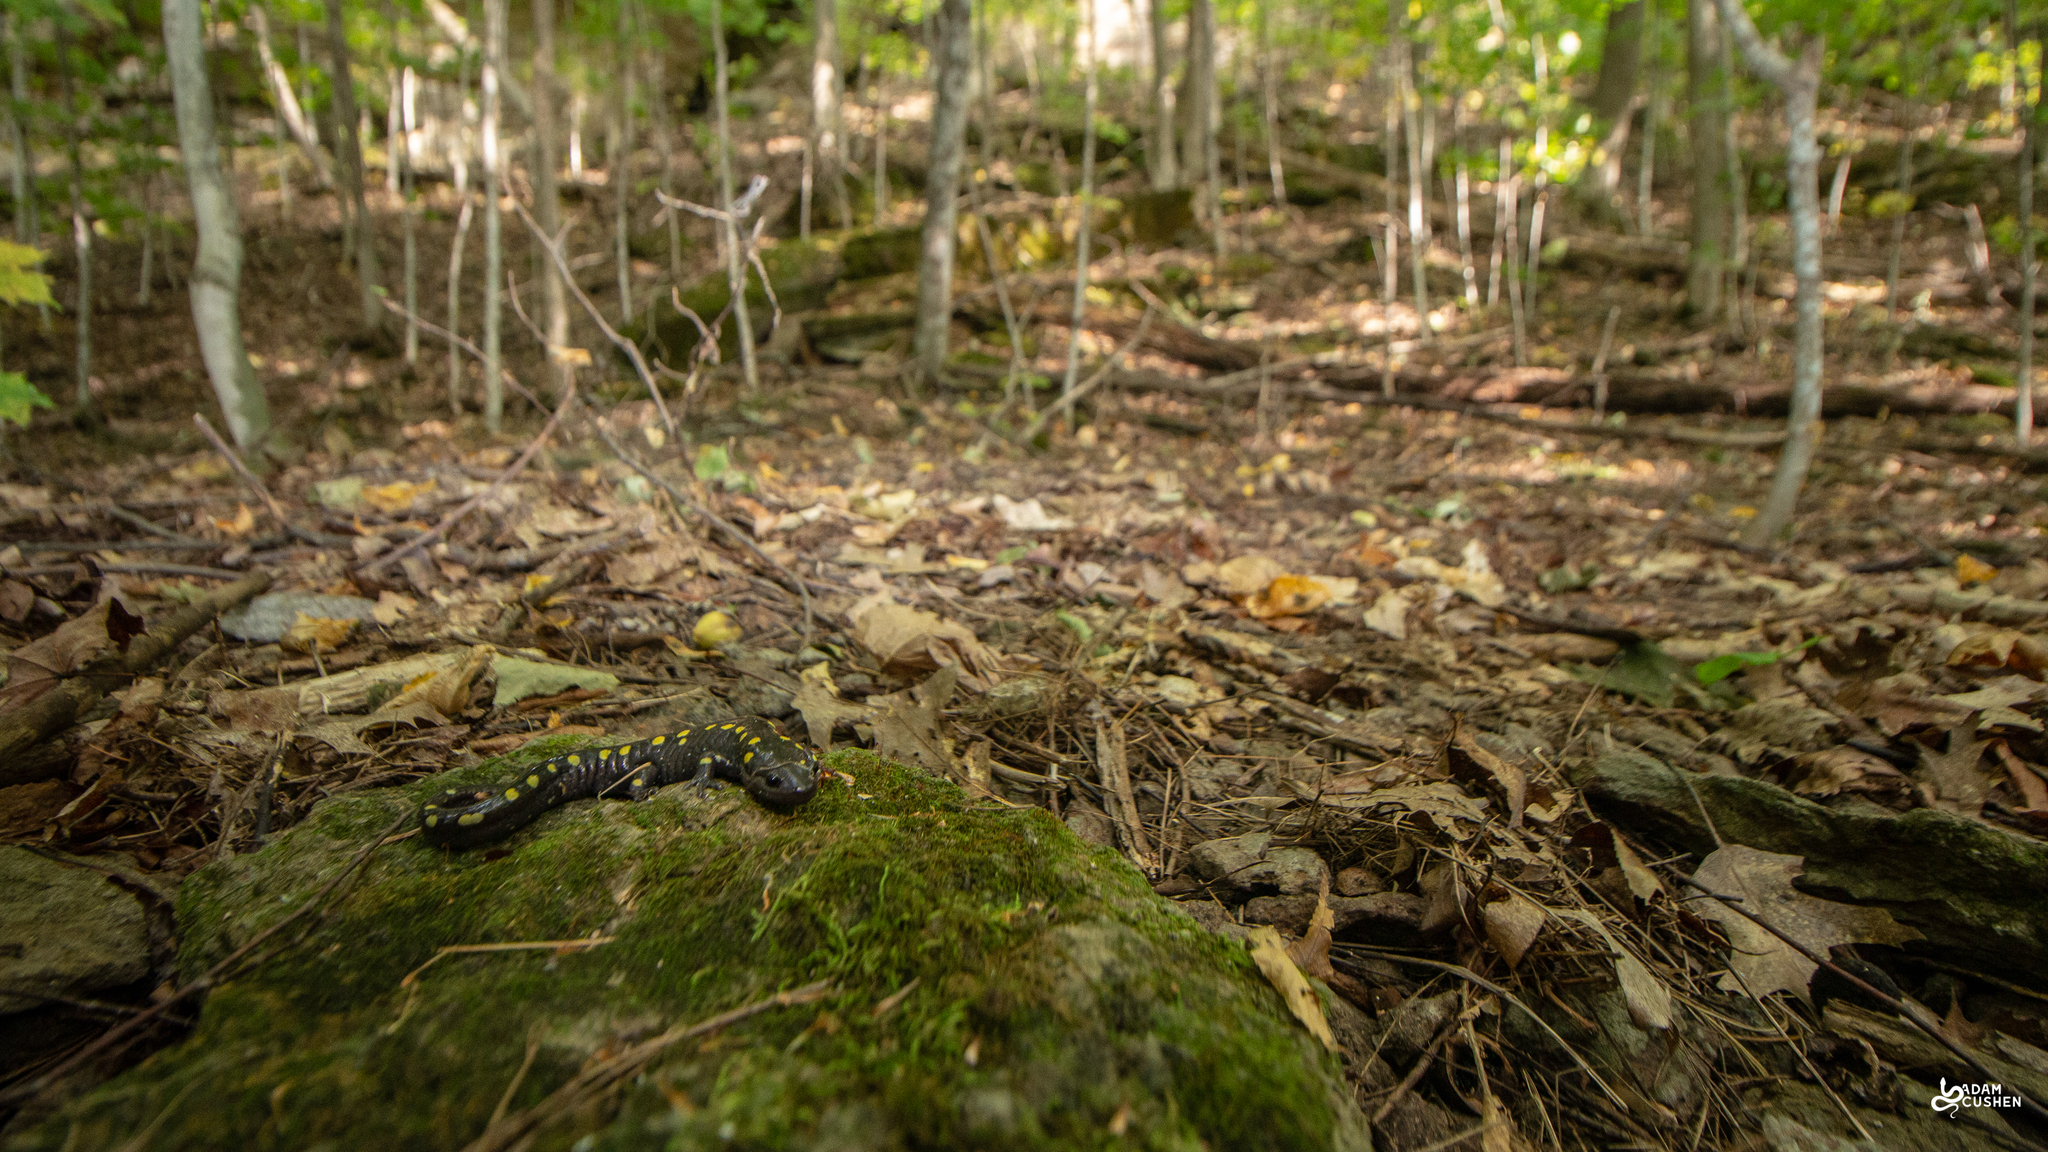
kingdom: Animalia
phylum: Chordata
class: Amphibia
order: Caudata
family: Ambystomatidae
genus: Ambystoma
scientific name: Ambystoma maculatum
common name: Spotted salamander
